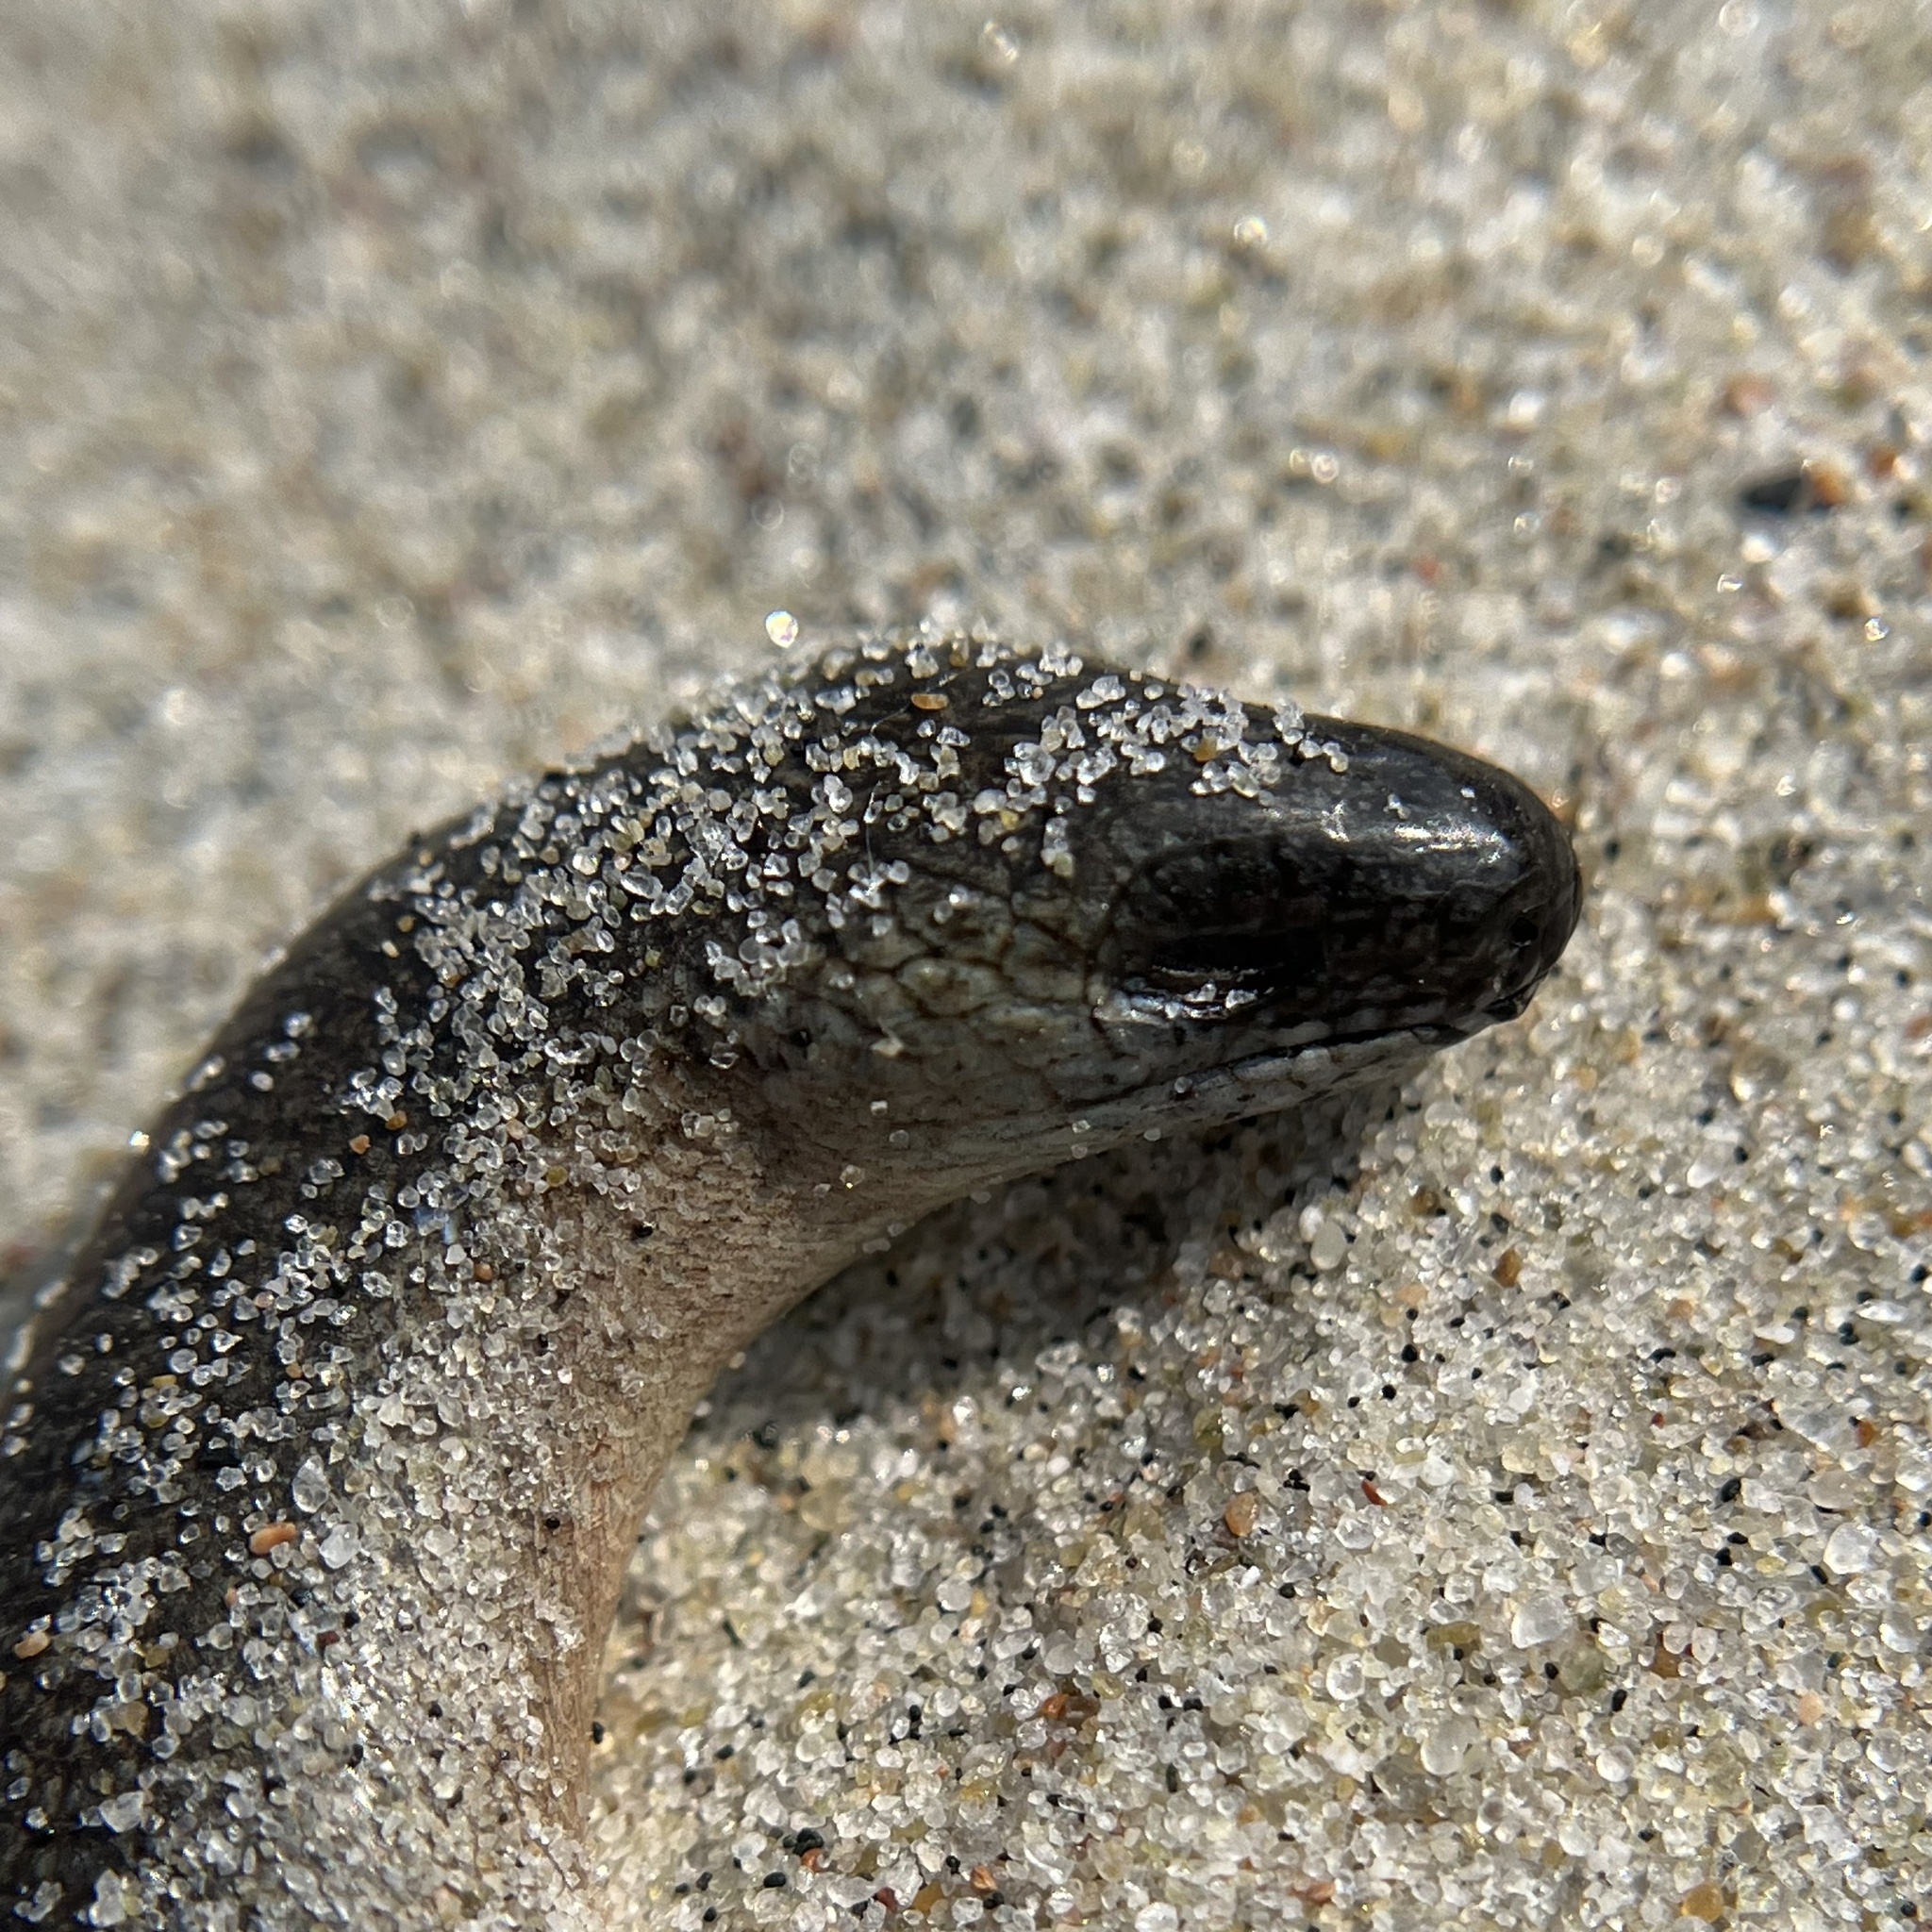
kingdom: Animalia
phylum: Chordata
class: Squamata
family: Anguidae
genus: Anguis
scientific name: Anguis fragilis
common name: Slow worm
